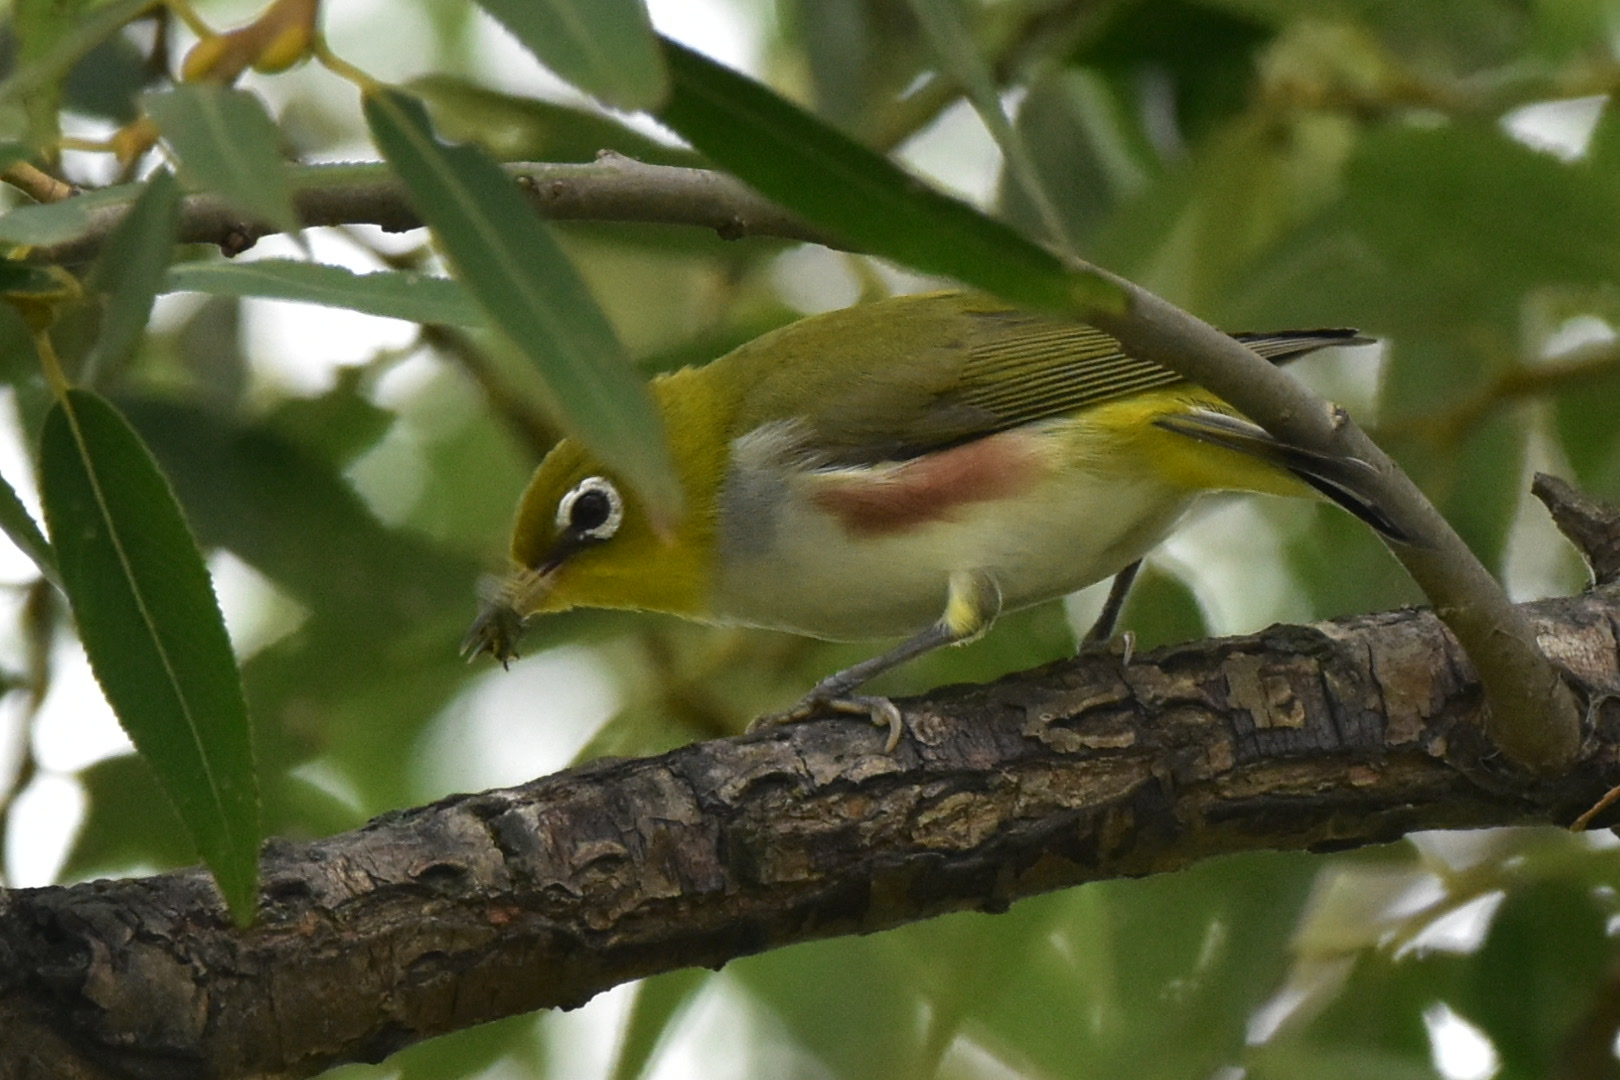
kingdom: Animalia
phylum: Chordata
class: Aves
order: Passeriformes
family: Zosteropidae
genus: Zosterops
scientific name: Zosterops erythropleurus
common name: Chestnut-flanked white-eye
